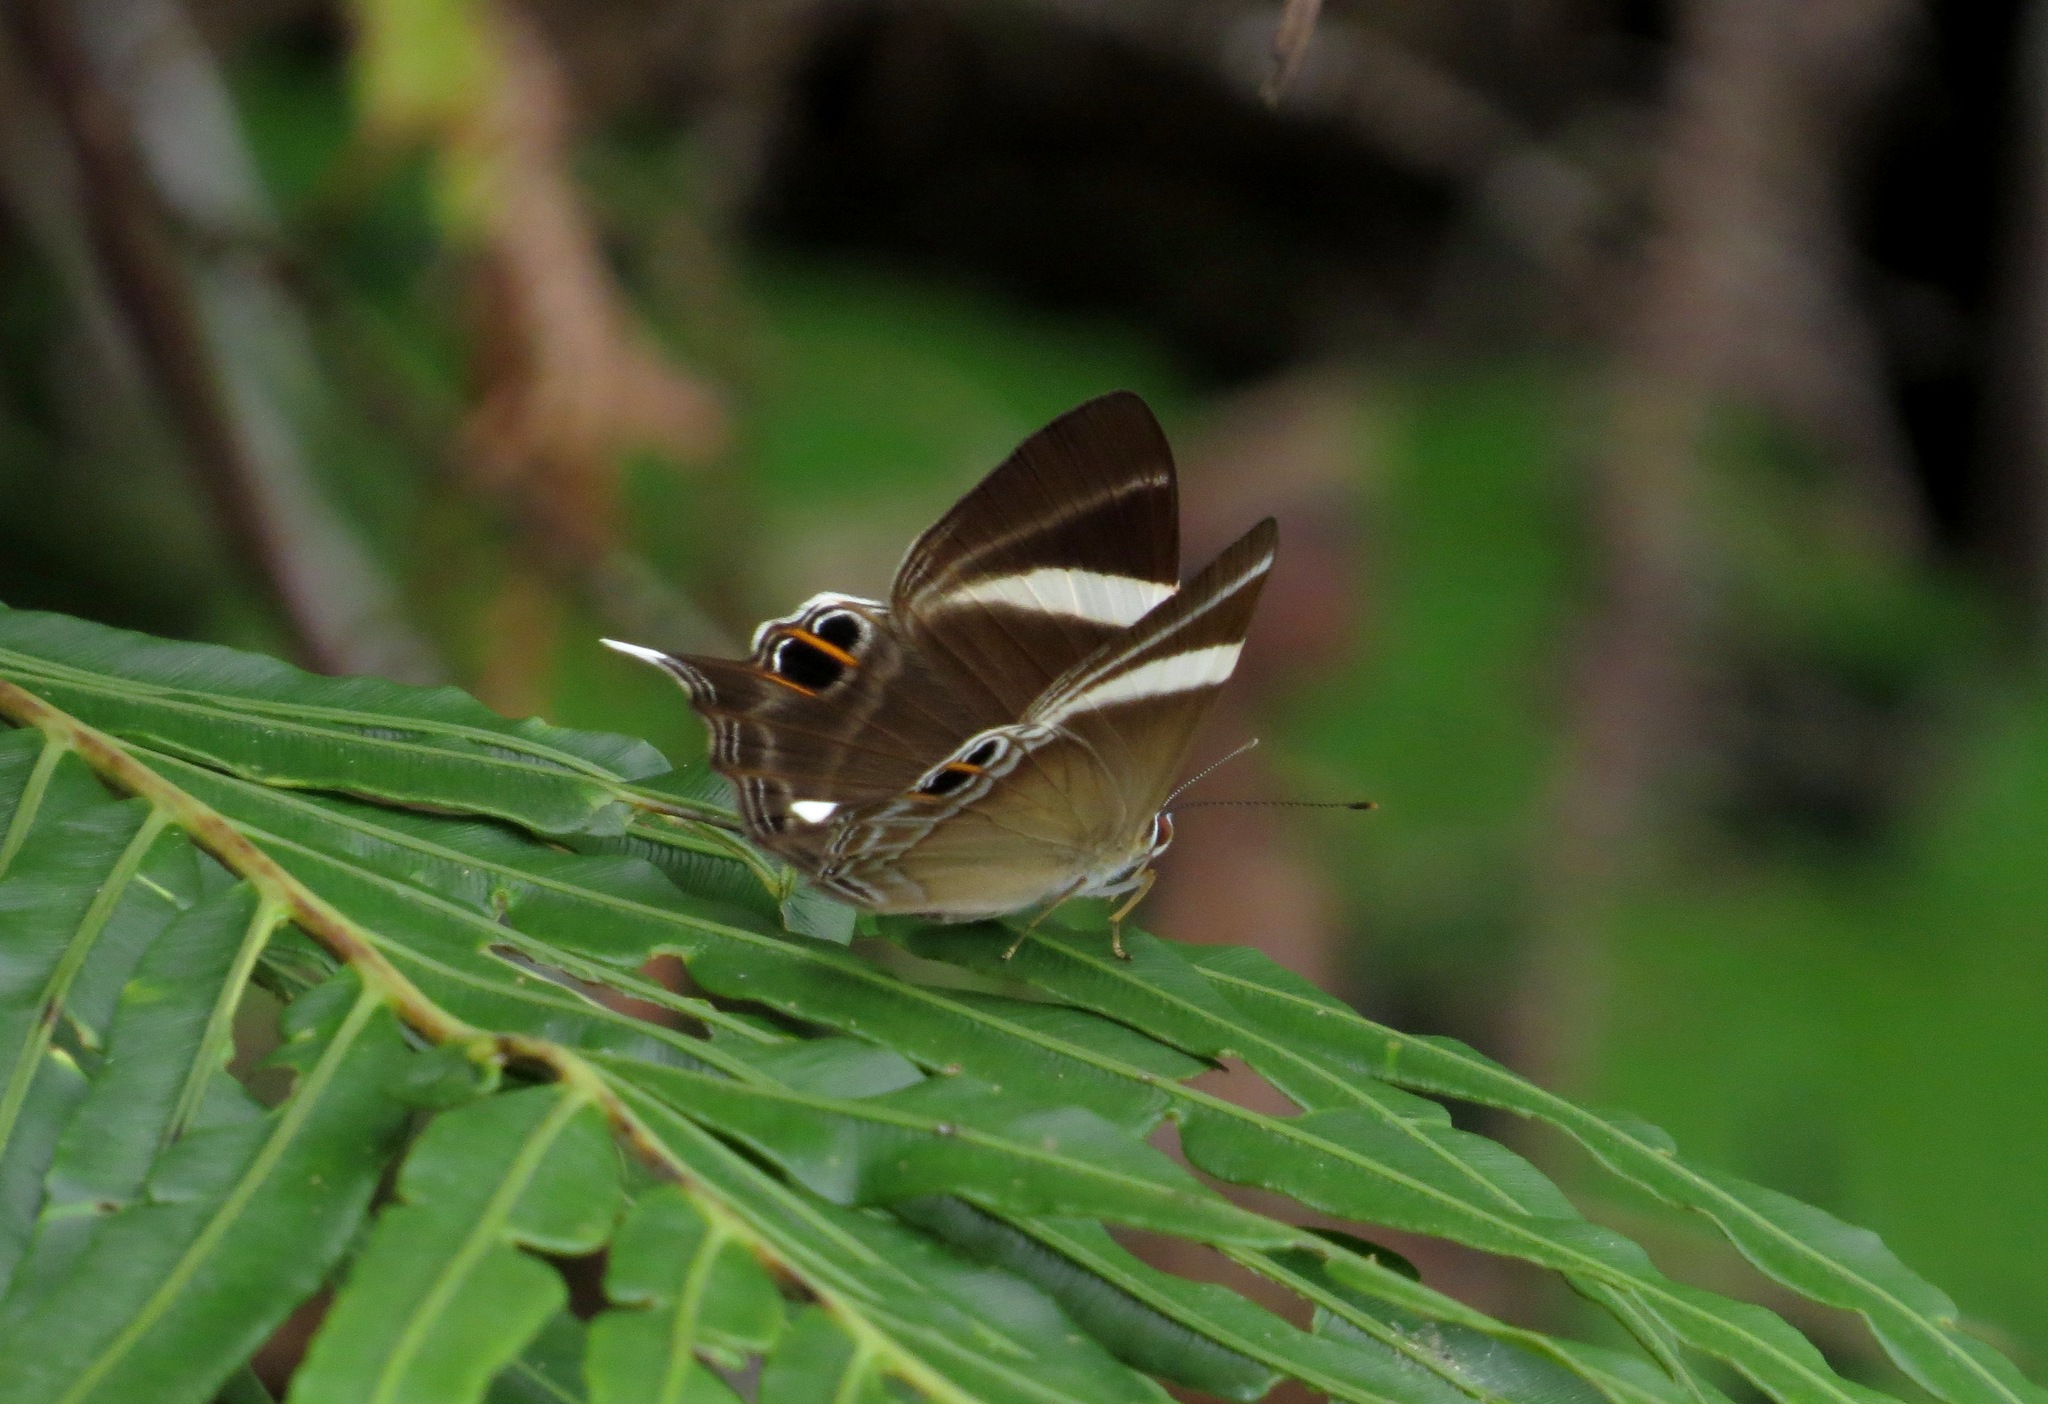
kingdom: Animalia
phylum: Arthropoda
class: Insecta
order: Lepidoptera
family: Lycaenidae
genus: Abisara
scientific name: Abisara neophron
